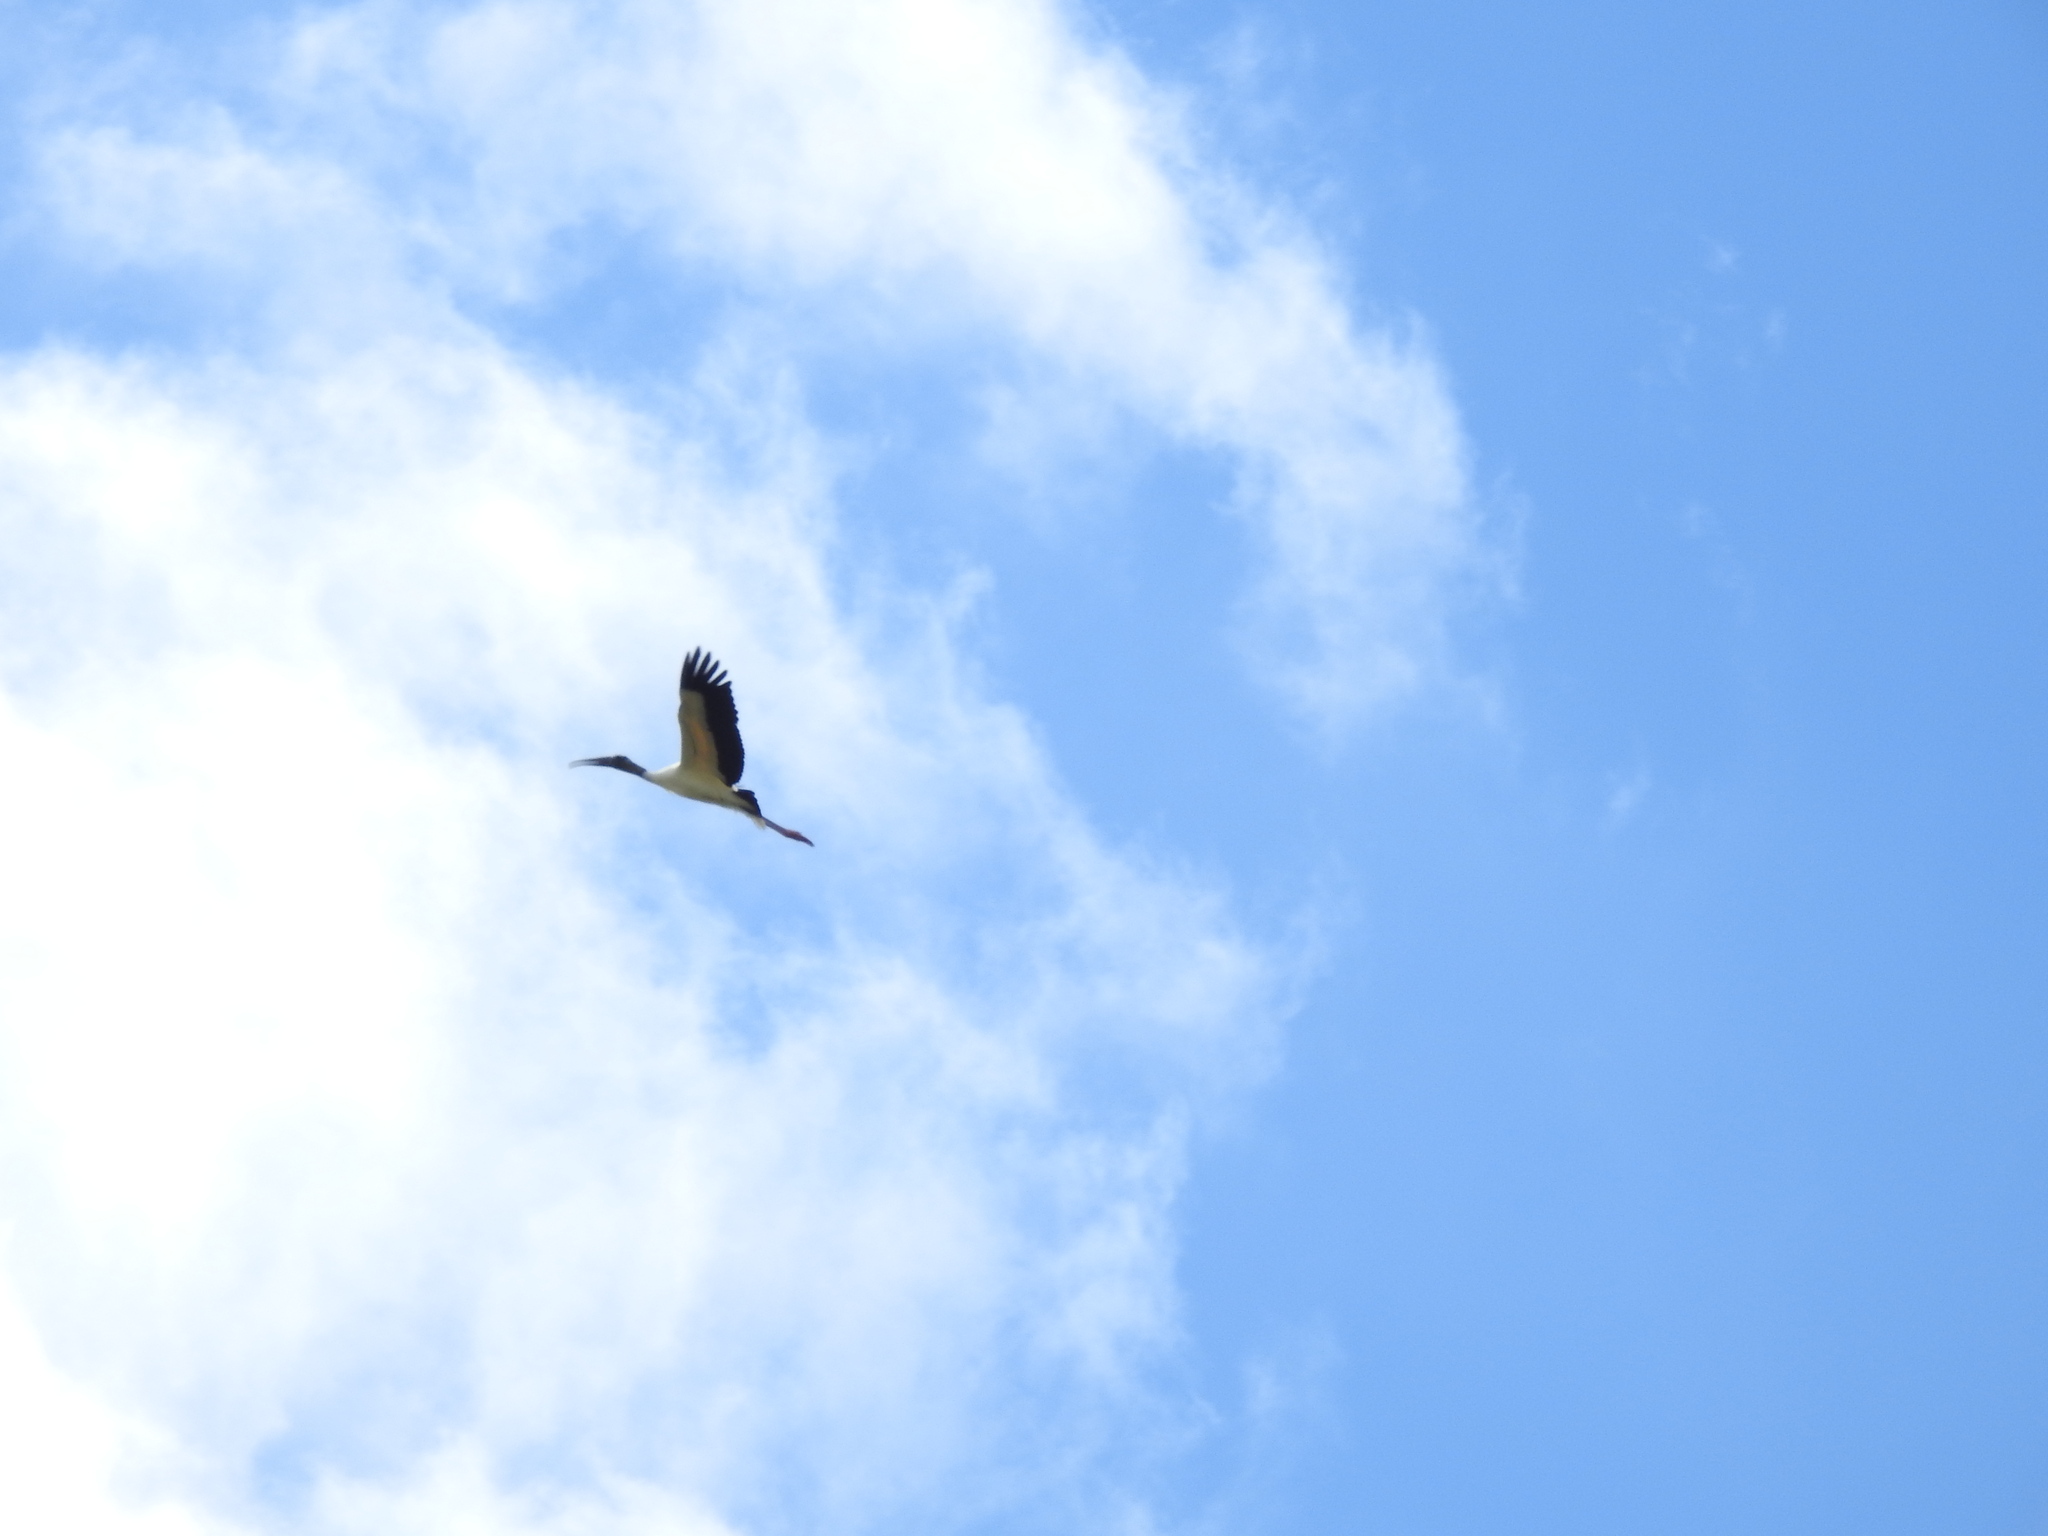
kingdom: Animalia
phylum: Chordata
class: Aves
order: Ciconiiformes
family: Ciconiidae
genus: Mycteria
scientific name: Mycteria americana
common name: Wood stork
